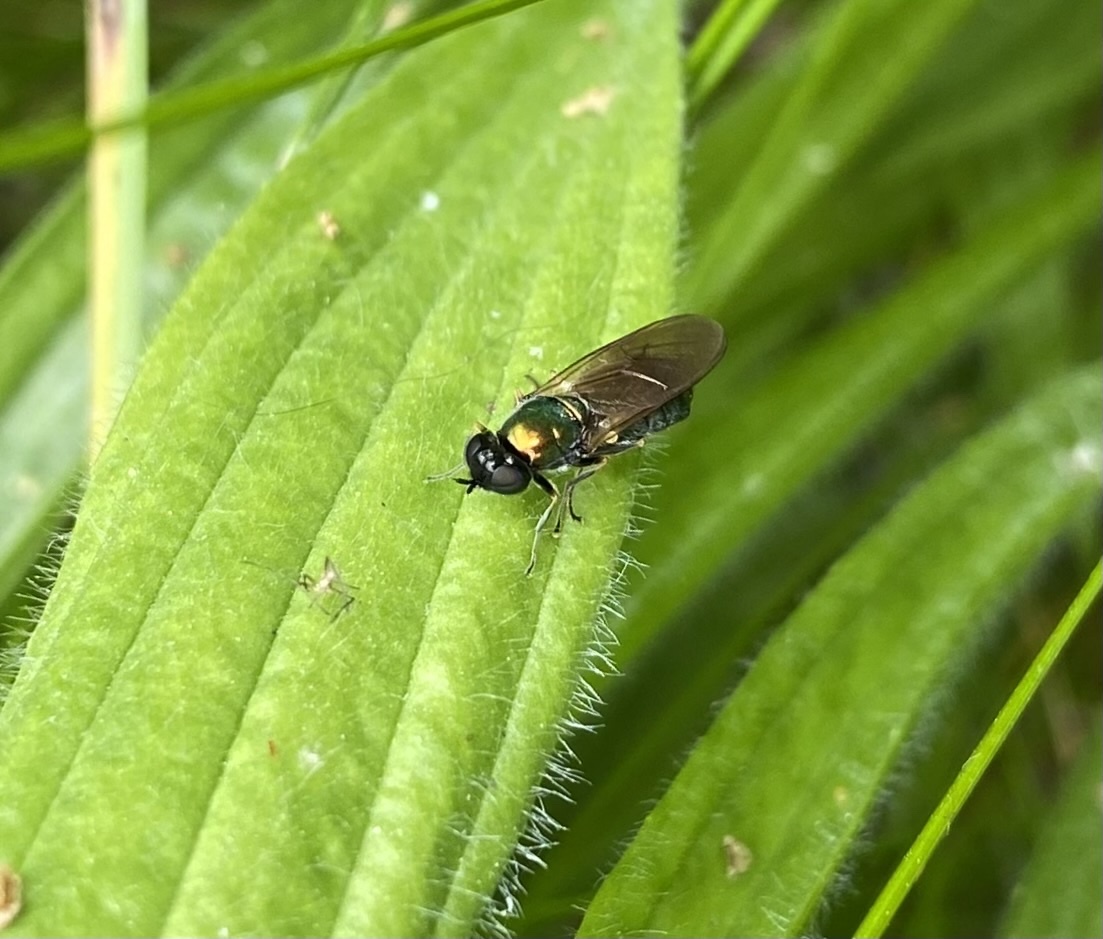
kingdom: Animalia
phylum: Arthropoda
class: Insecta
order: Diptera
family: Stratiomyidae
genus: Chloromyia
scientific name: Chloromyia formosa
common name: Soldier fly
